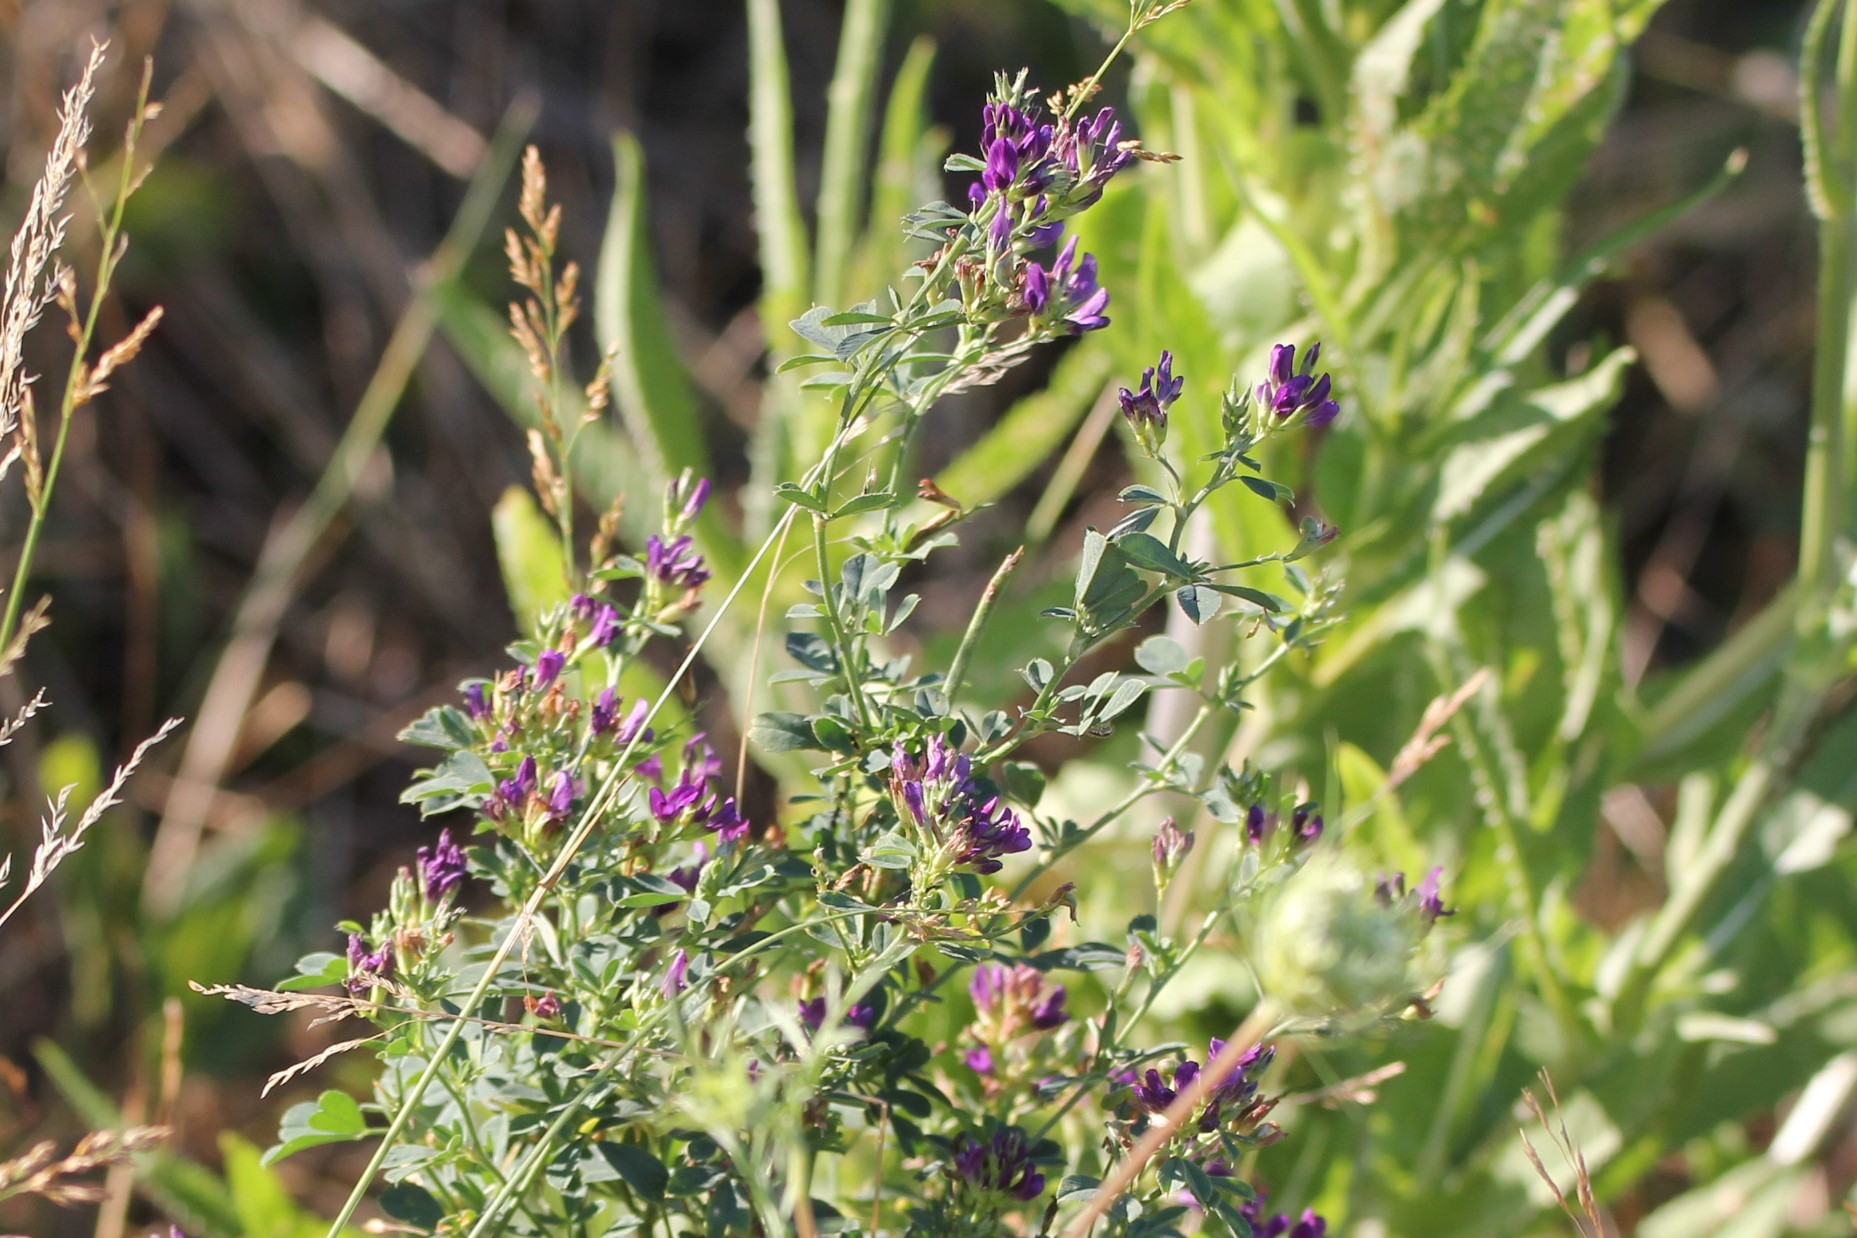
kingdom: Plantae
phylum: Tracheophyta
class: Magnoliopsida
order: Fabales
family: Fabaceae
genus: Medicago
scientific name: Medicago sativa
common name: Alfalfa
